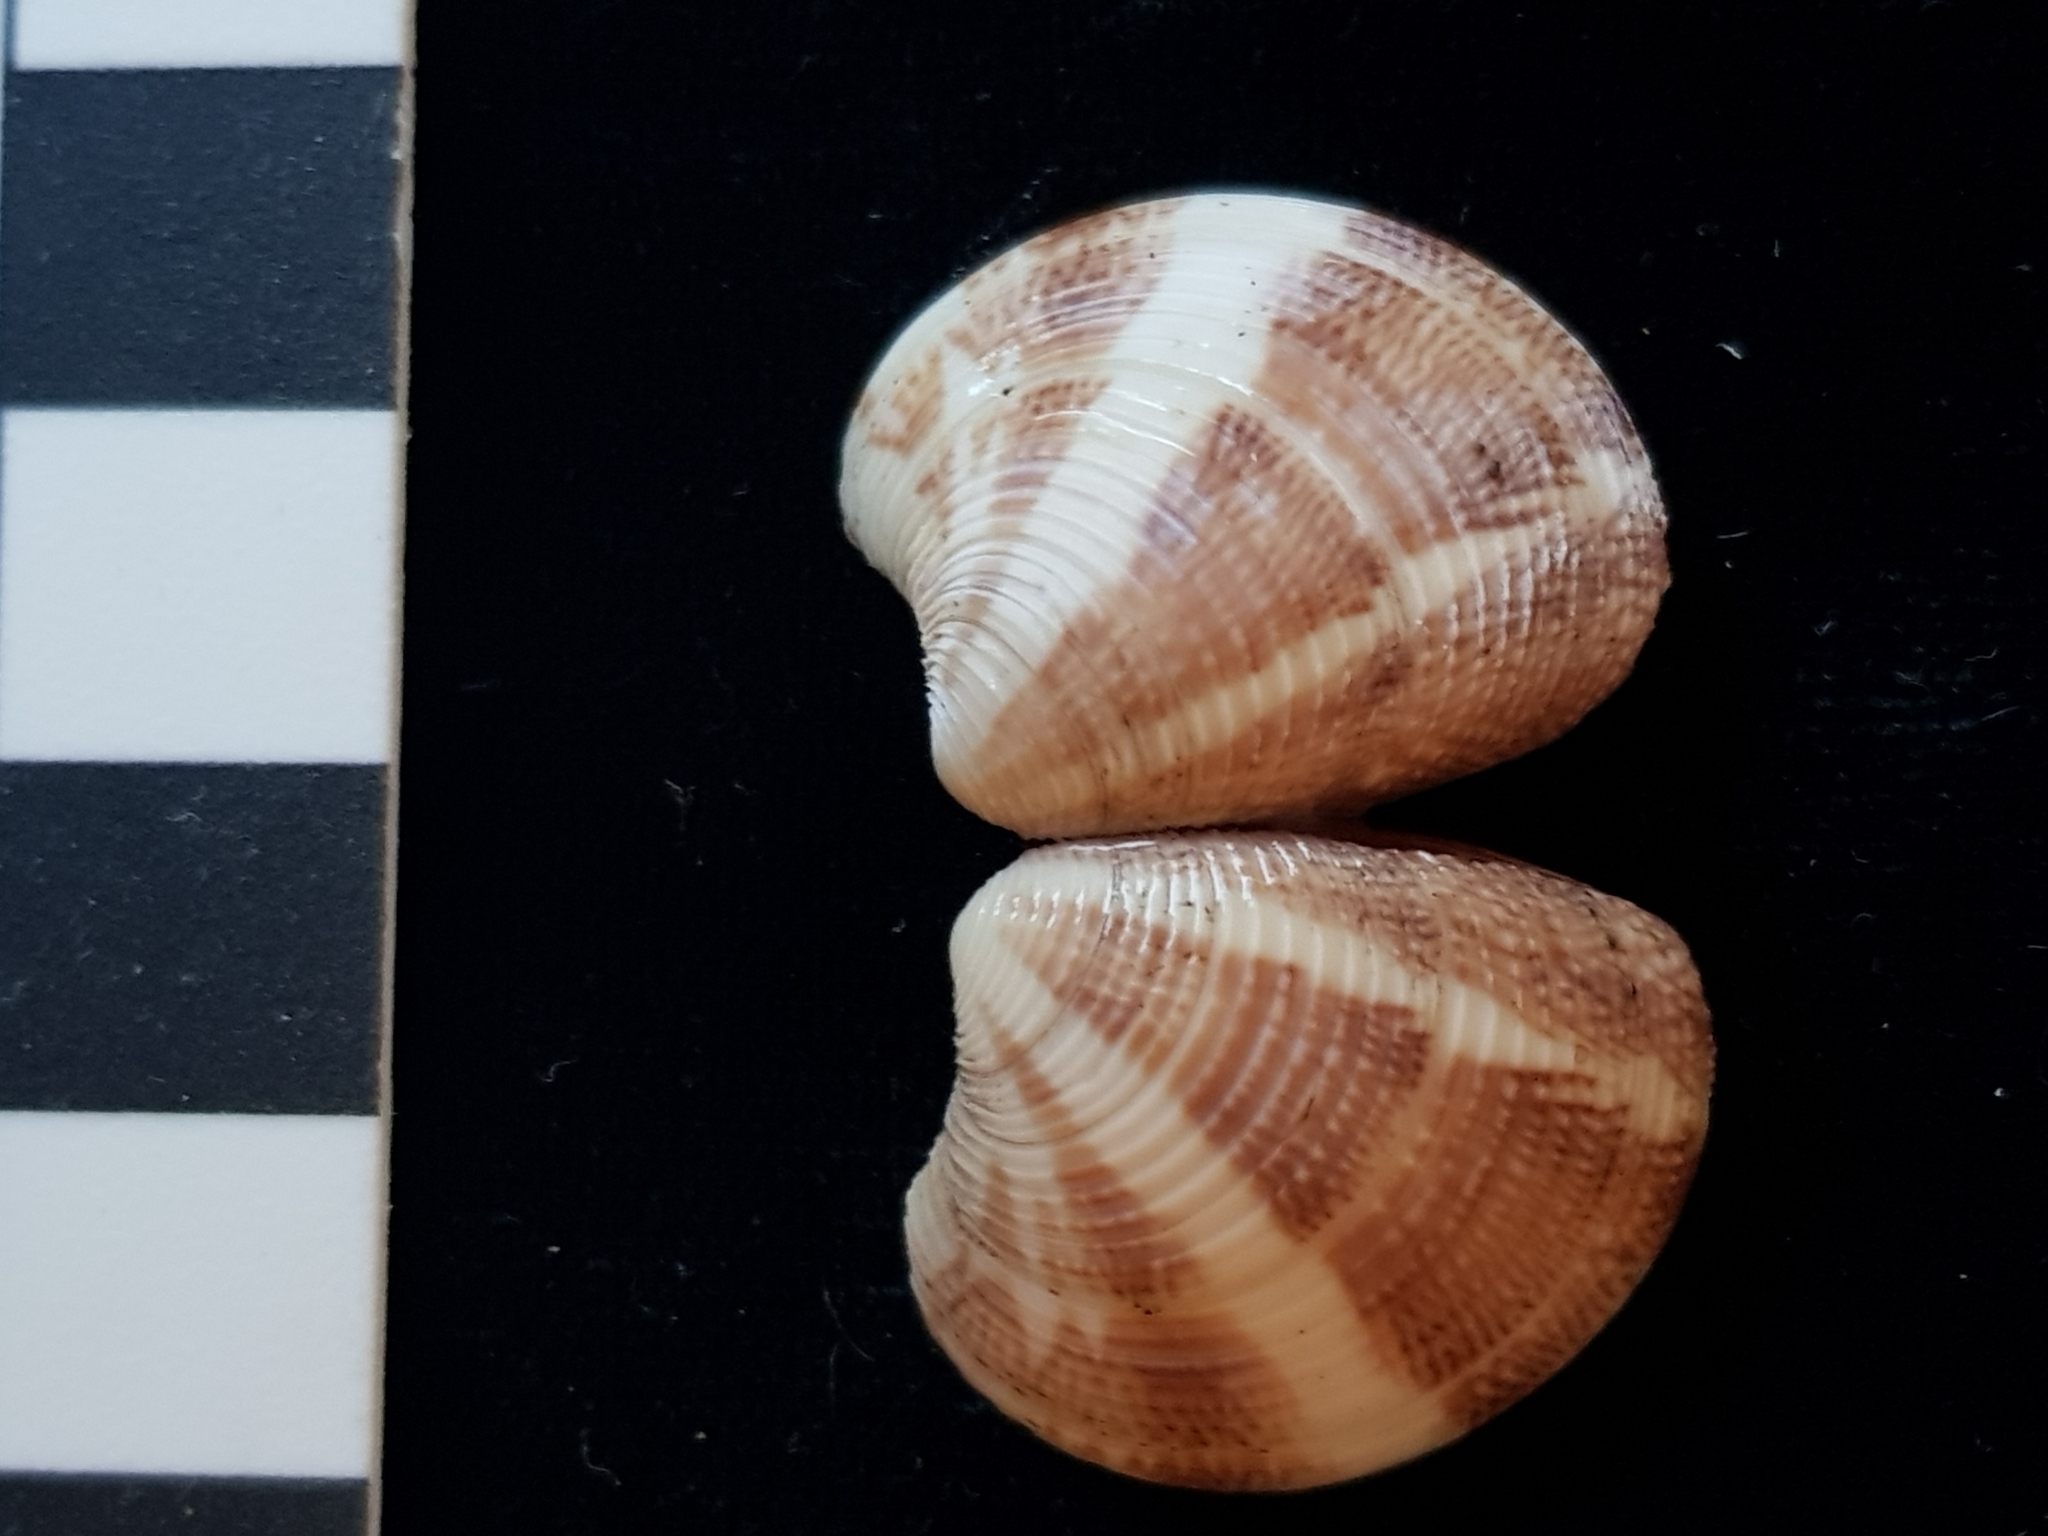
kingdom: Animalia
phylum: Mollusca
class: Bivalvia
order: Venerida
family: Veneridae
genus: Chamelea
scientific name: Chamelea striatula
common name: Striped venus
